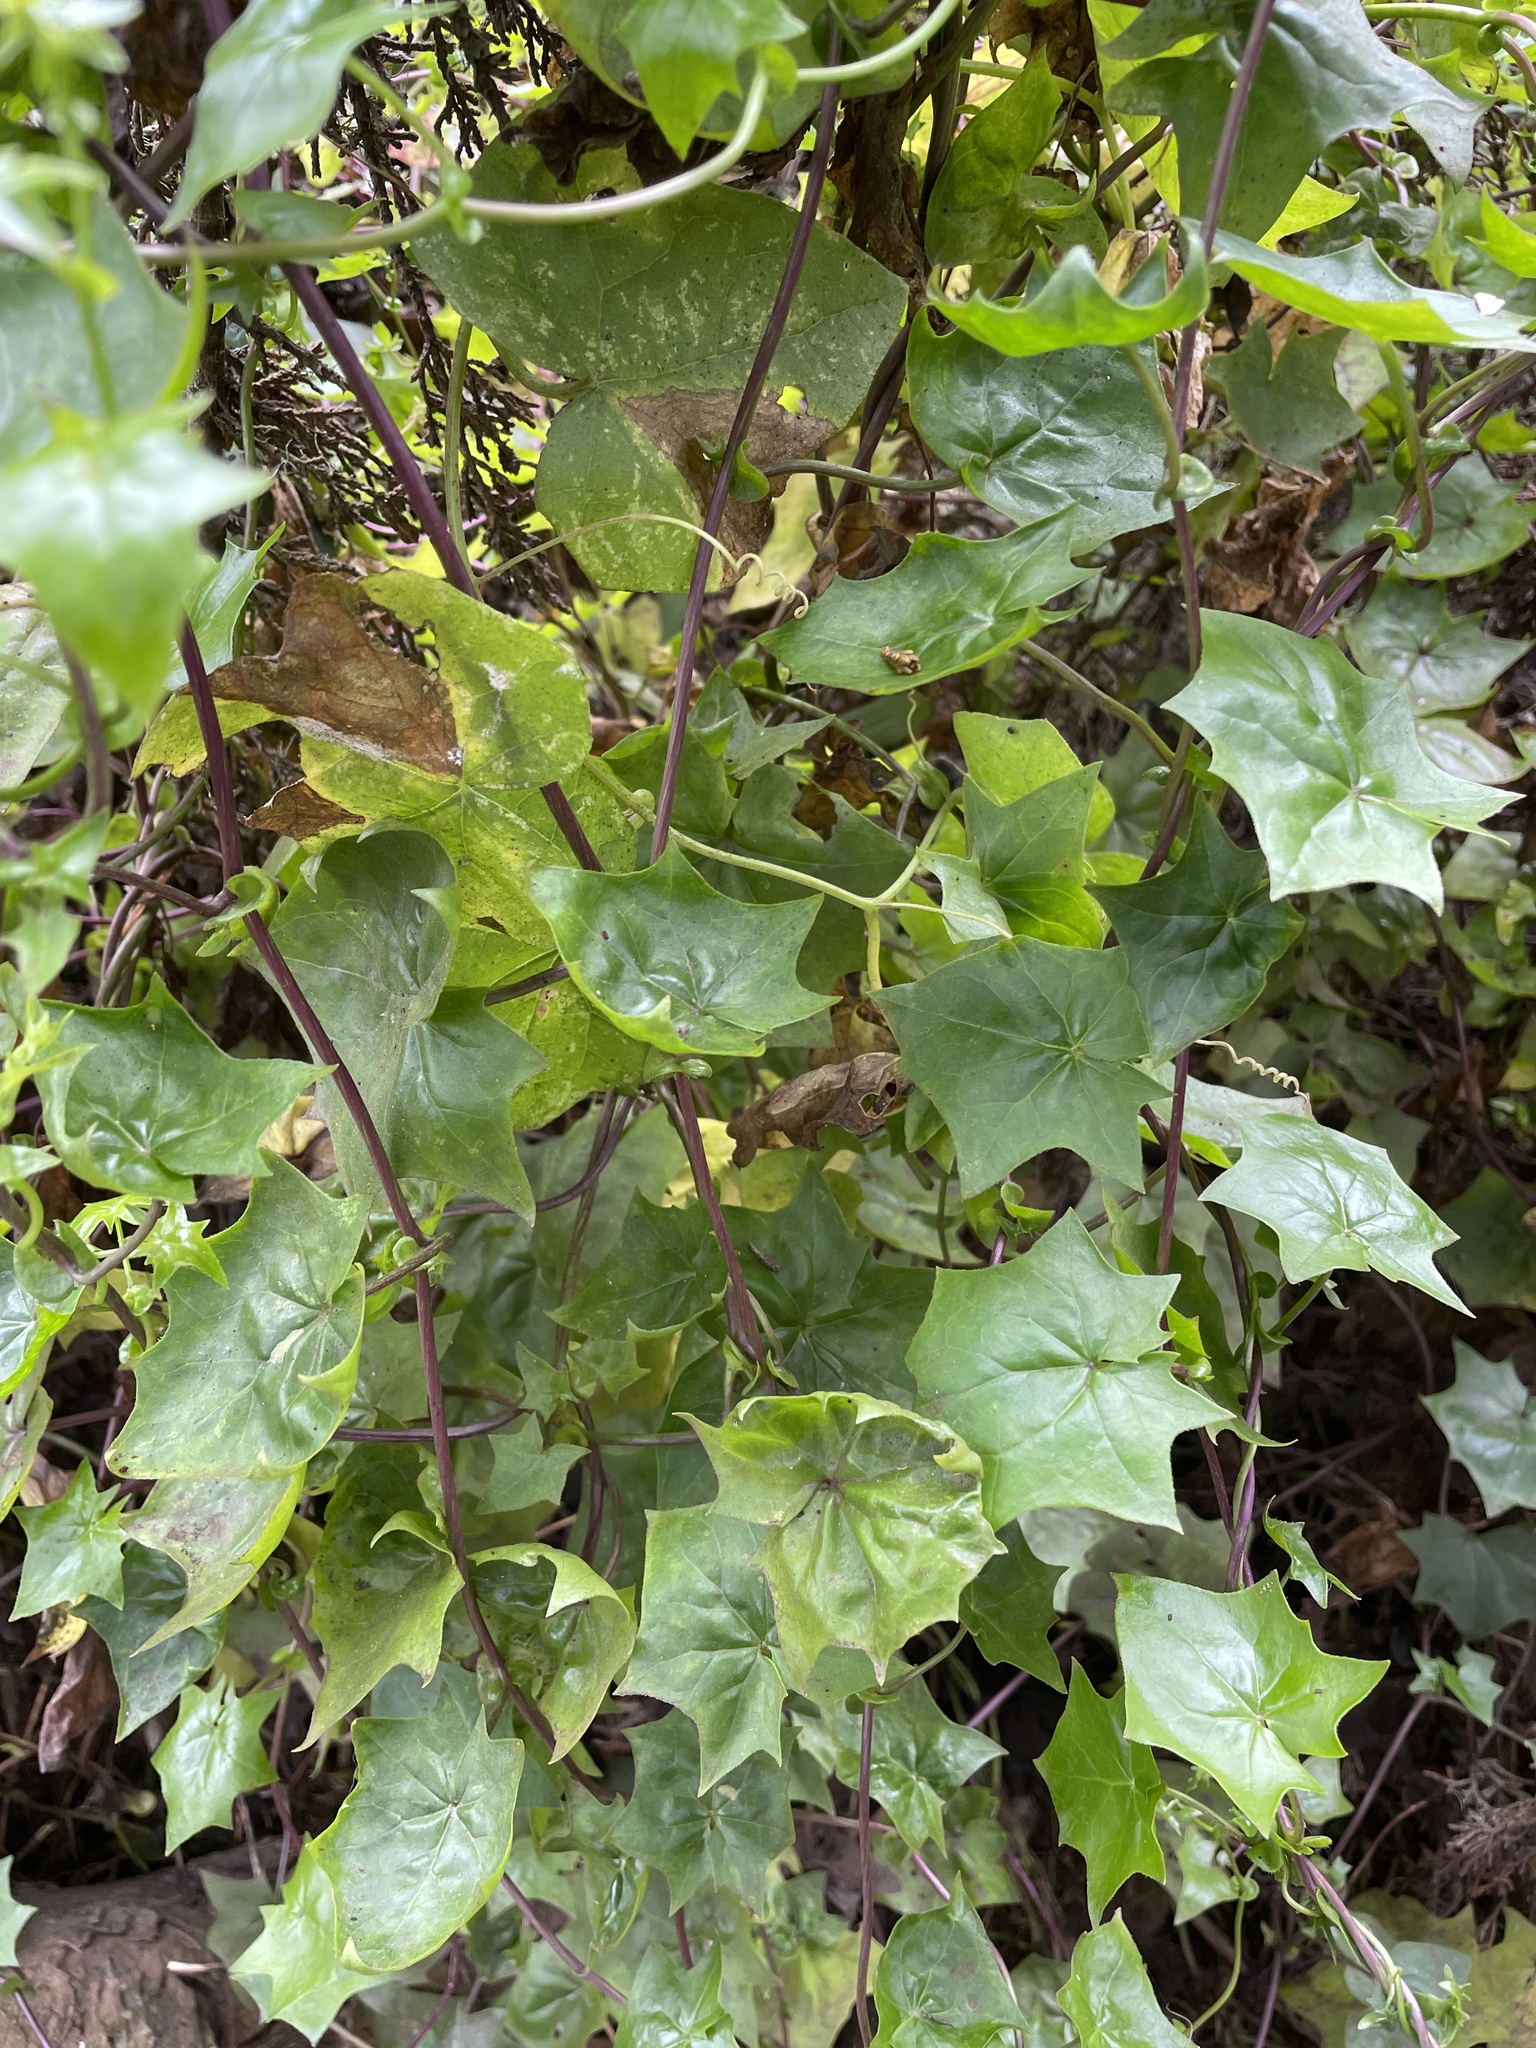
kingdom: Plantae
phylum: Tracheophyta
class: Magnoliopsida
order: Asterales
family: Asteraceae
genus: Delairea
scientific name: Delairea odorata
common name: Cape-ivy
